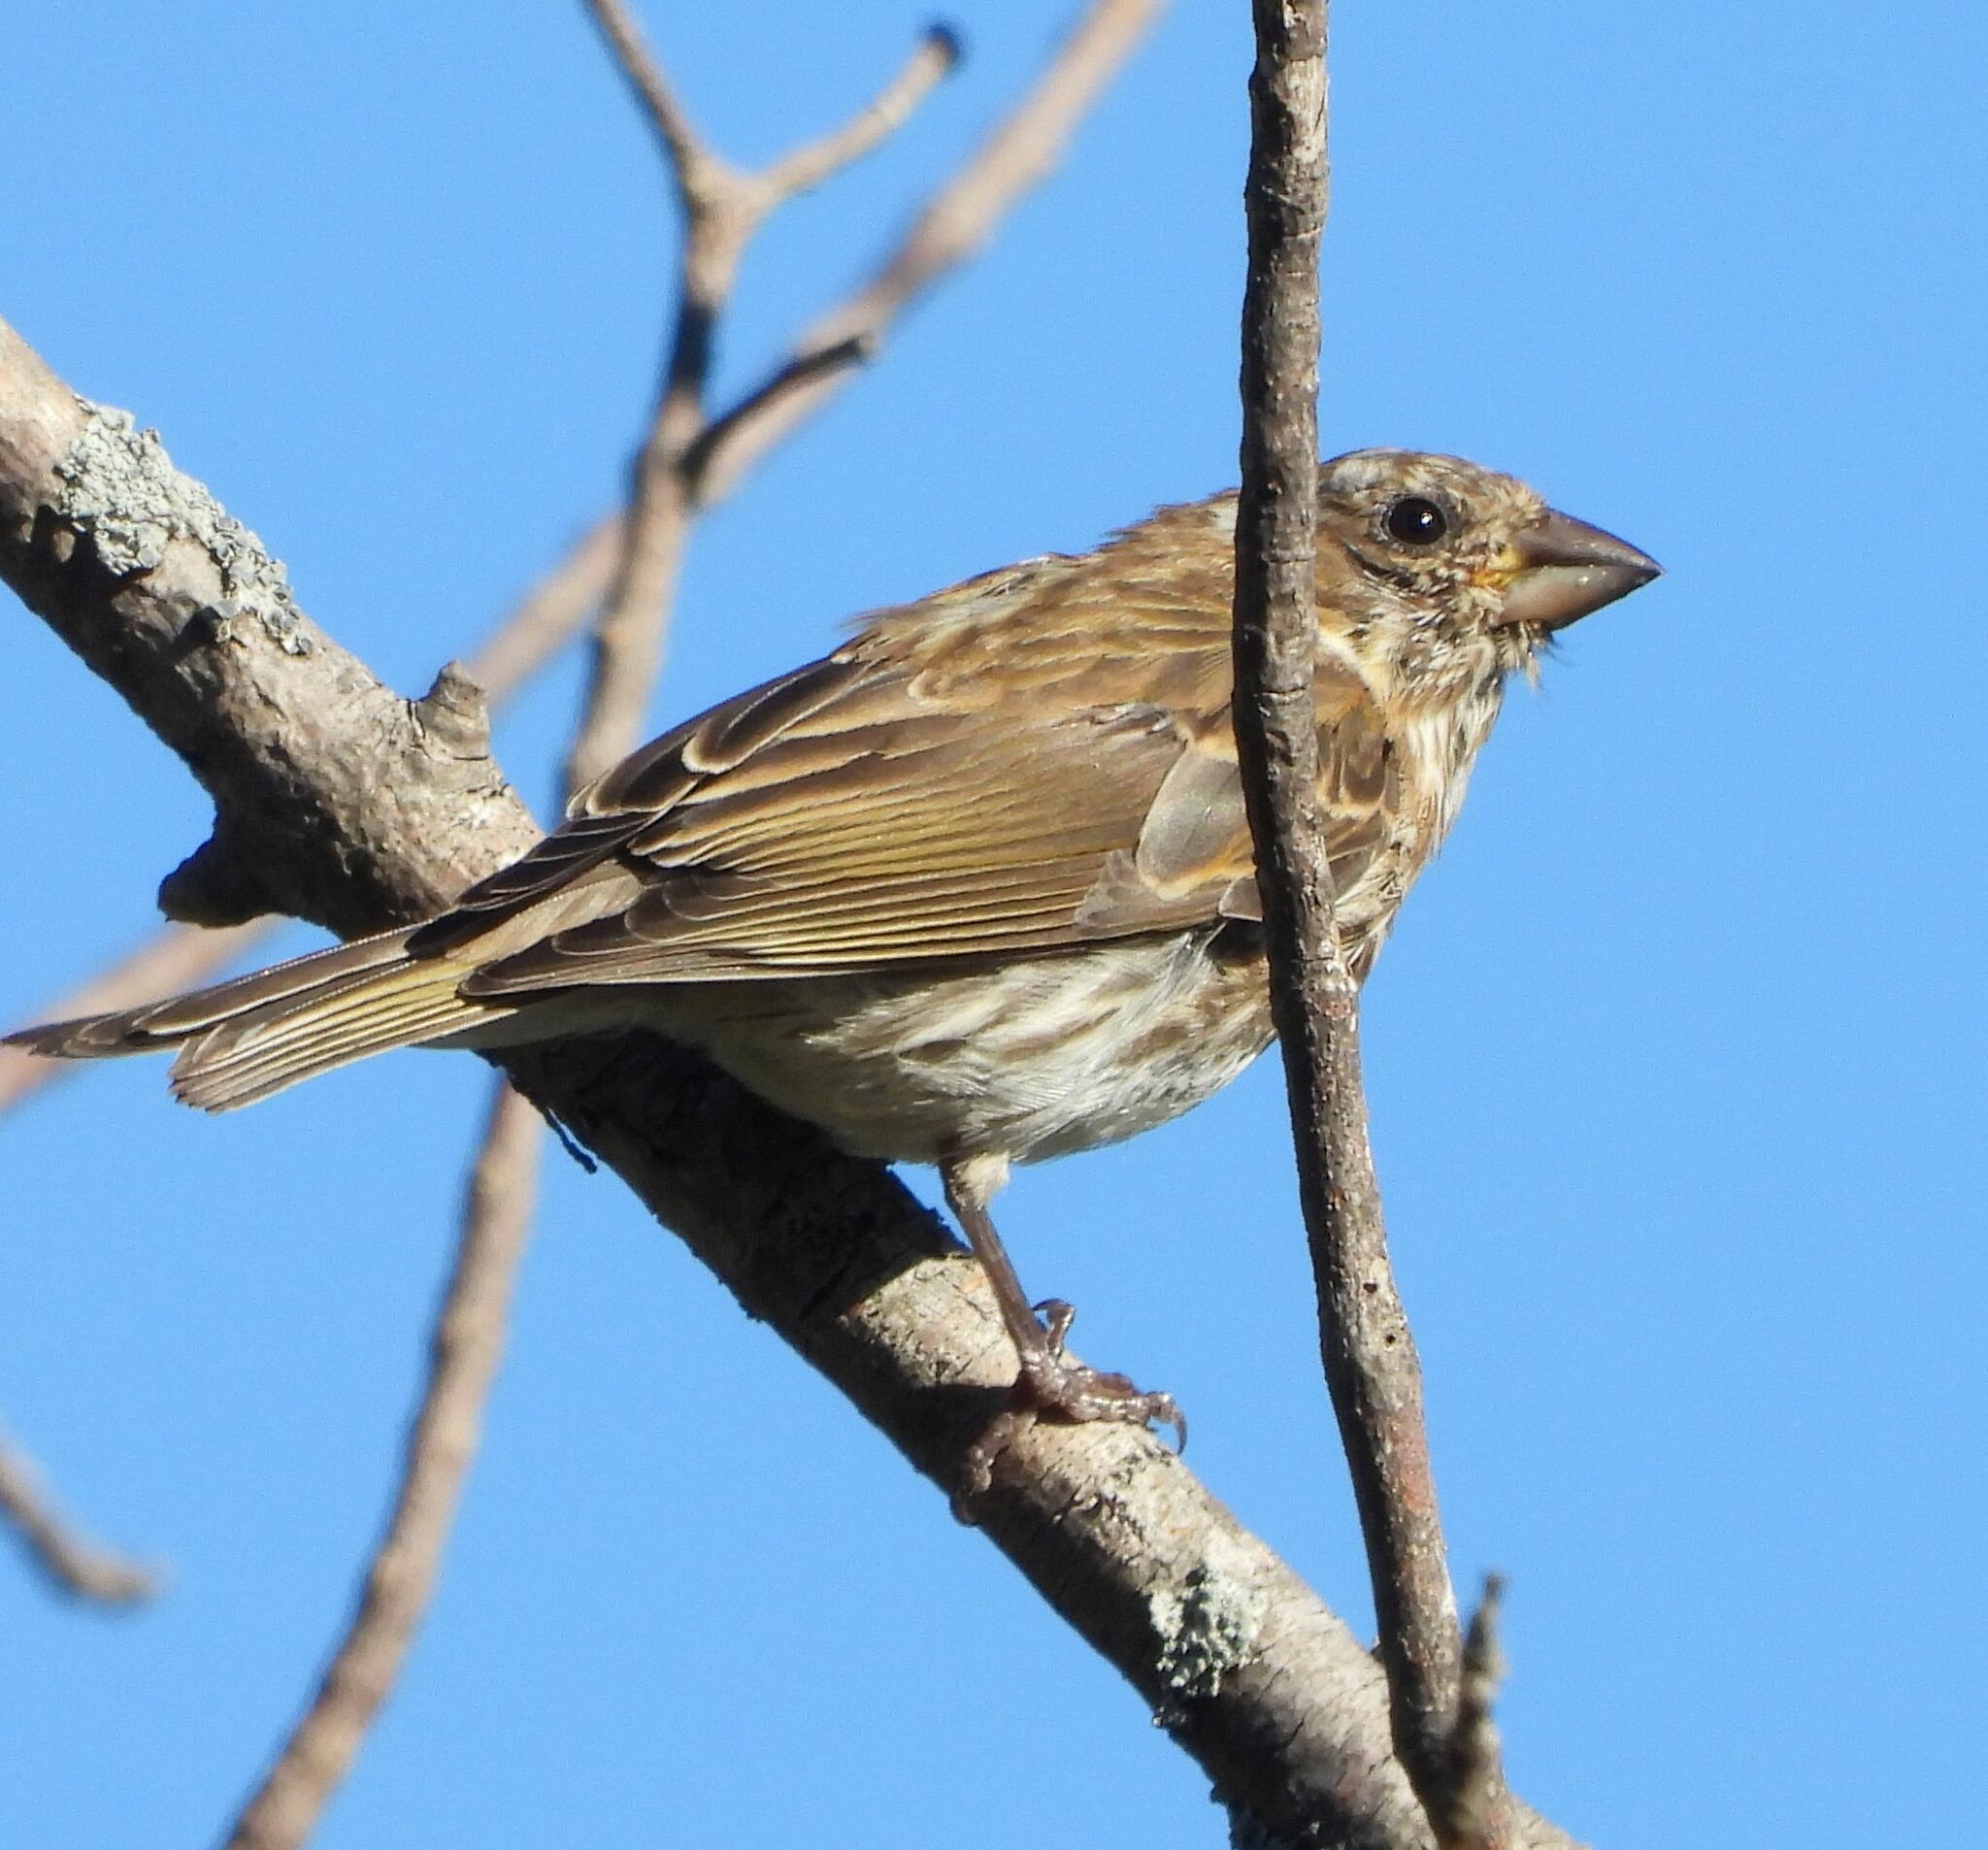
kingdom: Animalia
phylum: Chordata
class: Aves
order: Passeriformes
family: Fringillidae
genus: Haemorhous
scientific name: Haemorhous purpureus
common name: Purple finch
